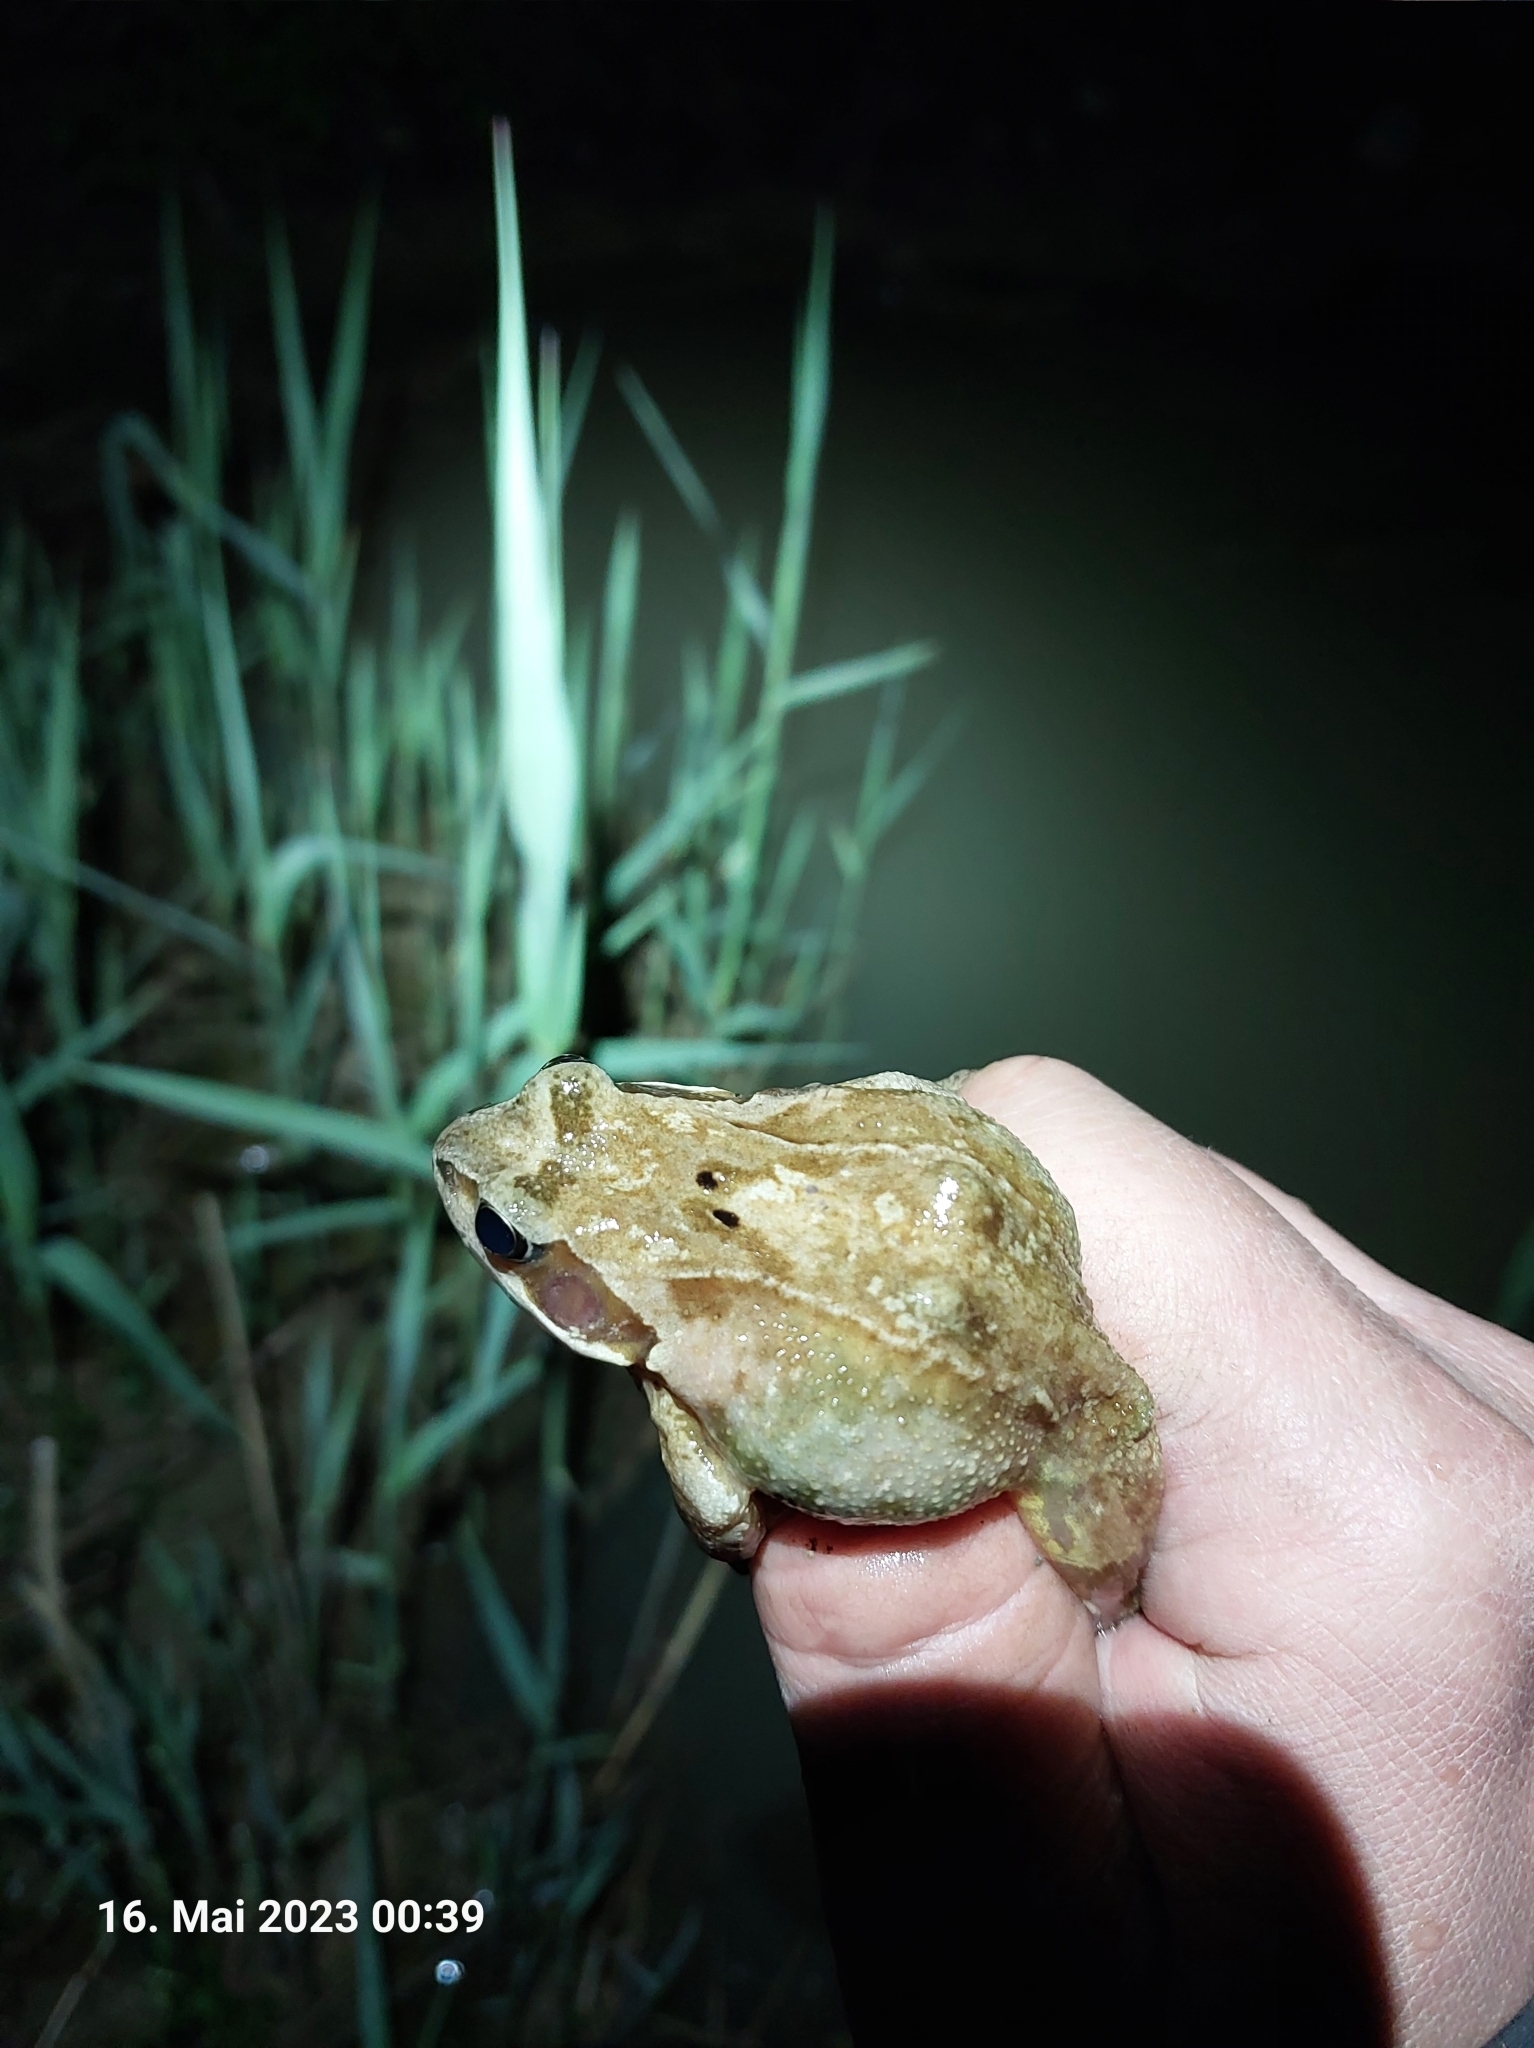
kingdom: Animalia
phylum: Chordata
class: Amphibia
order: Anura
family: Ranidae
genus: Rana
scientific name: Rana temporaria
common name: Common frog
